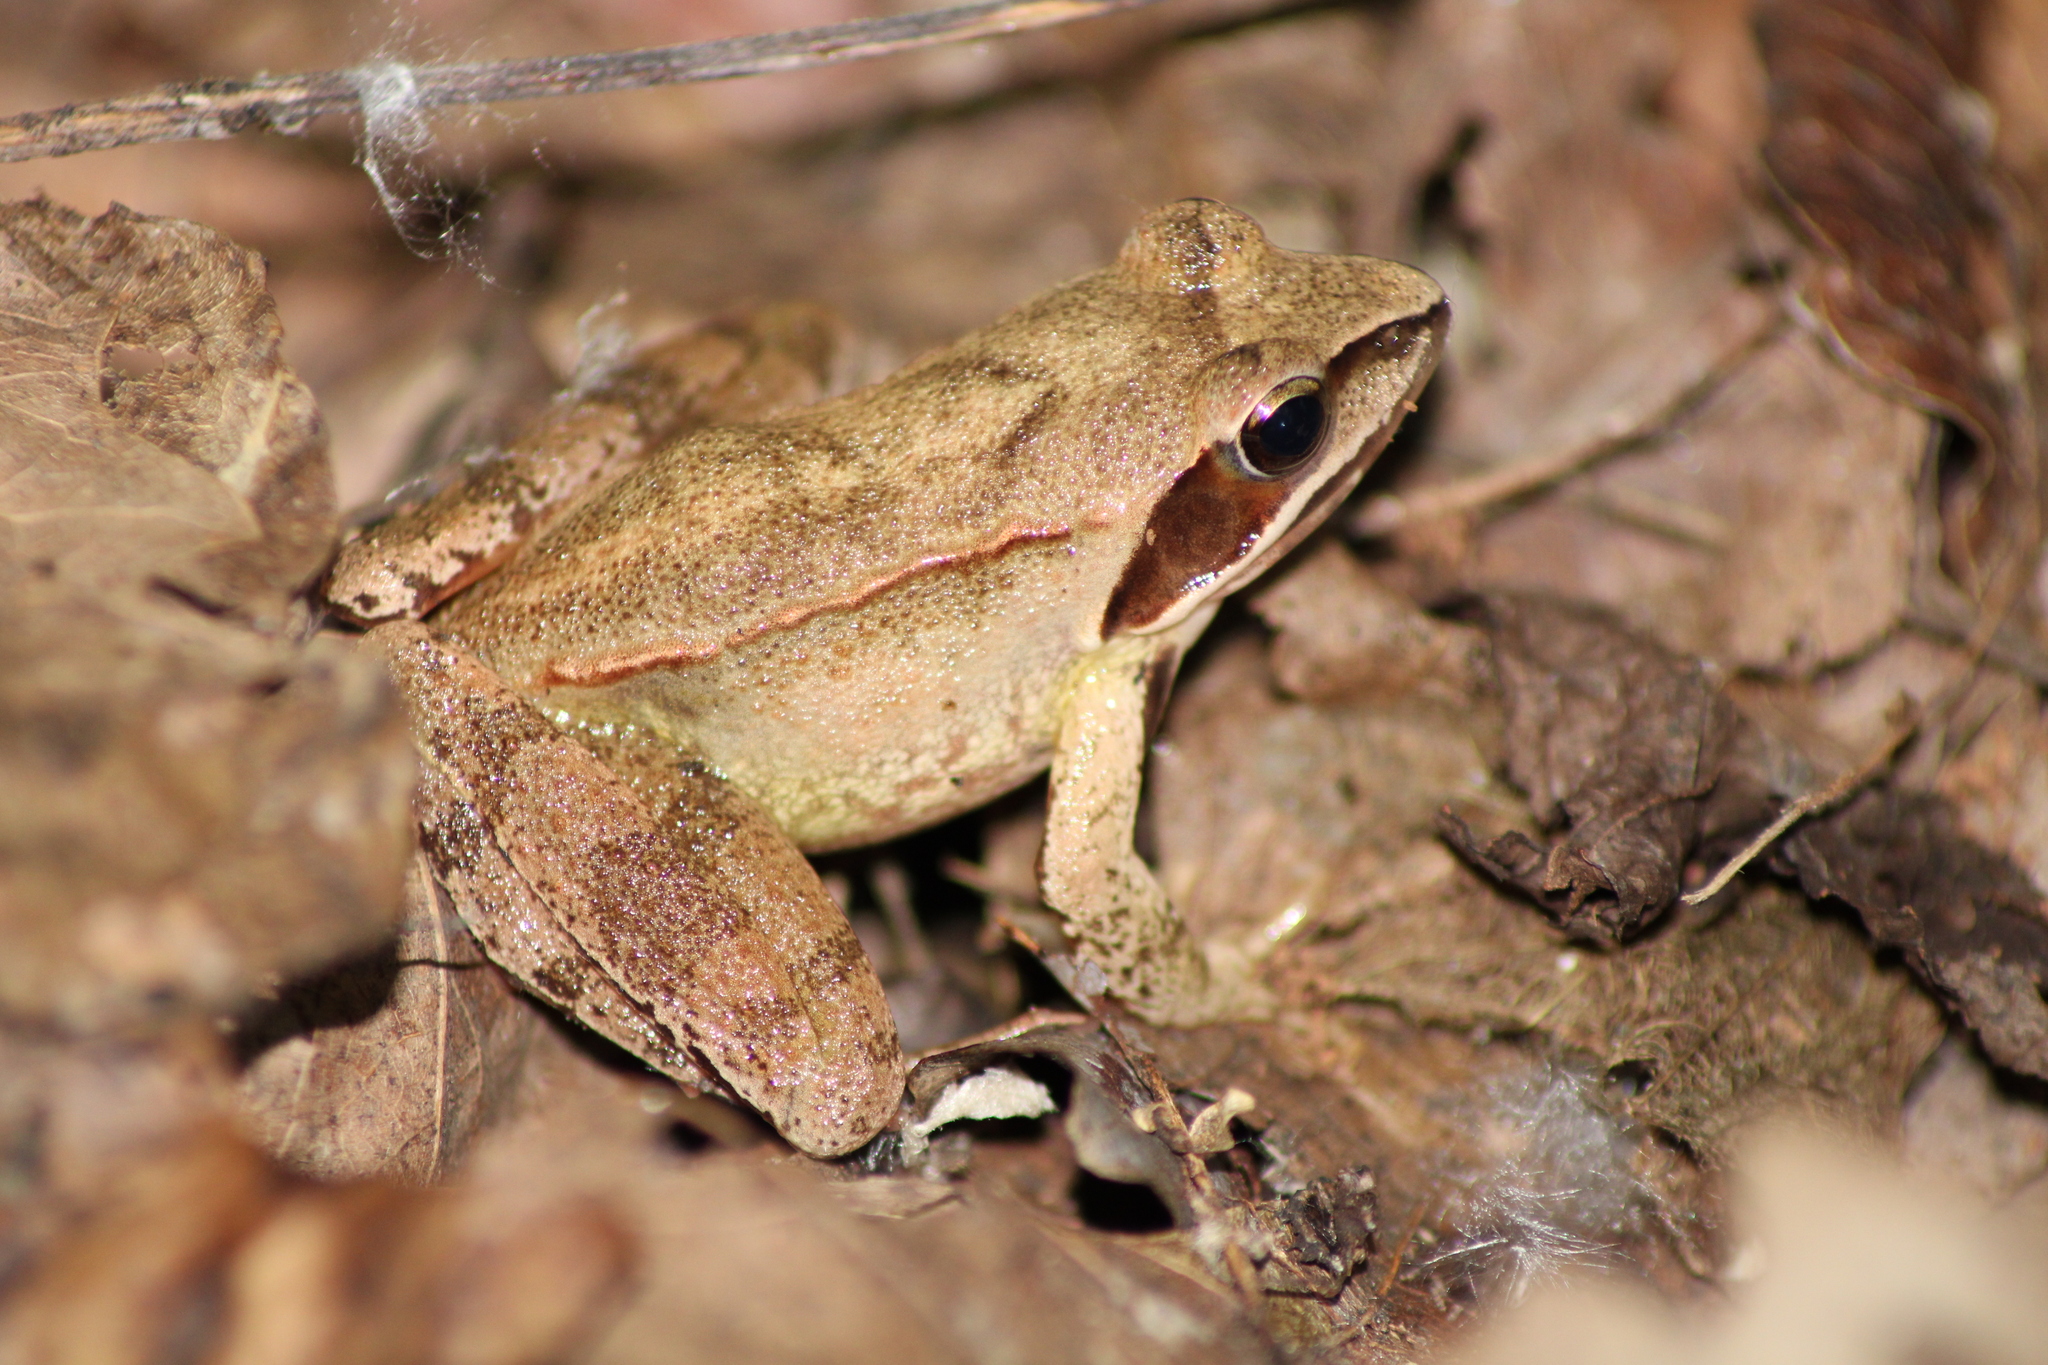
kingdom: Animalia
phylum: Chordata
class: Amphibia
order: Anura
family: Ranidae
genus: Rana
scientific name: Rana dalmatina
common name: Agile frog
